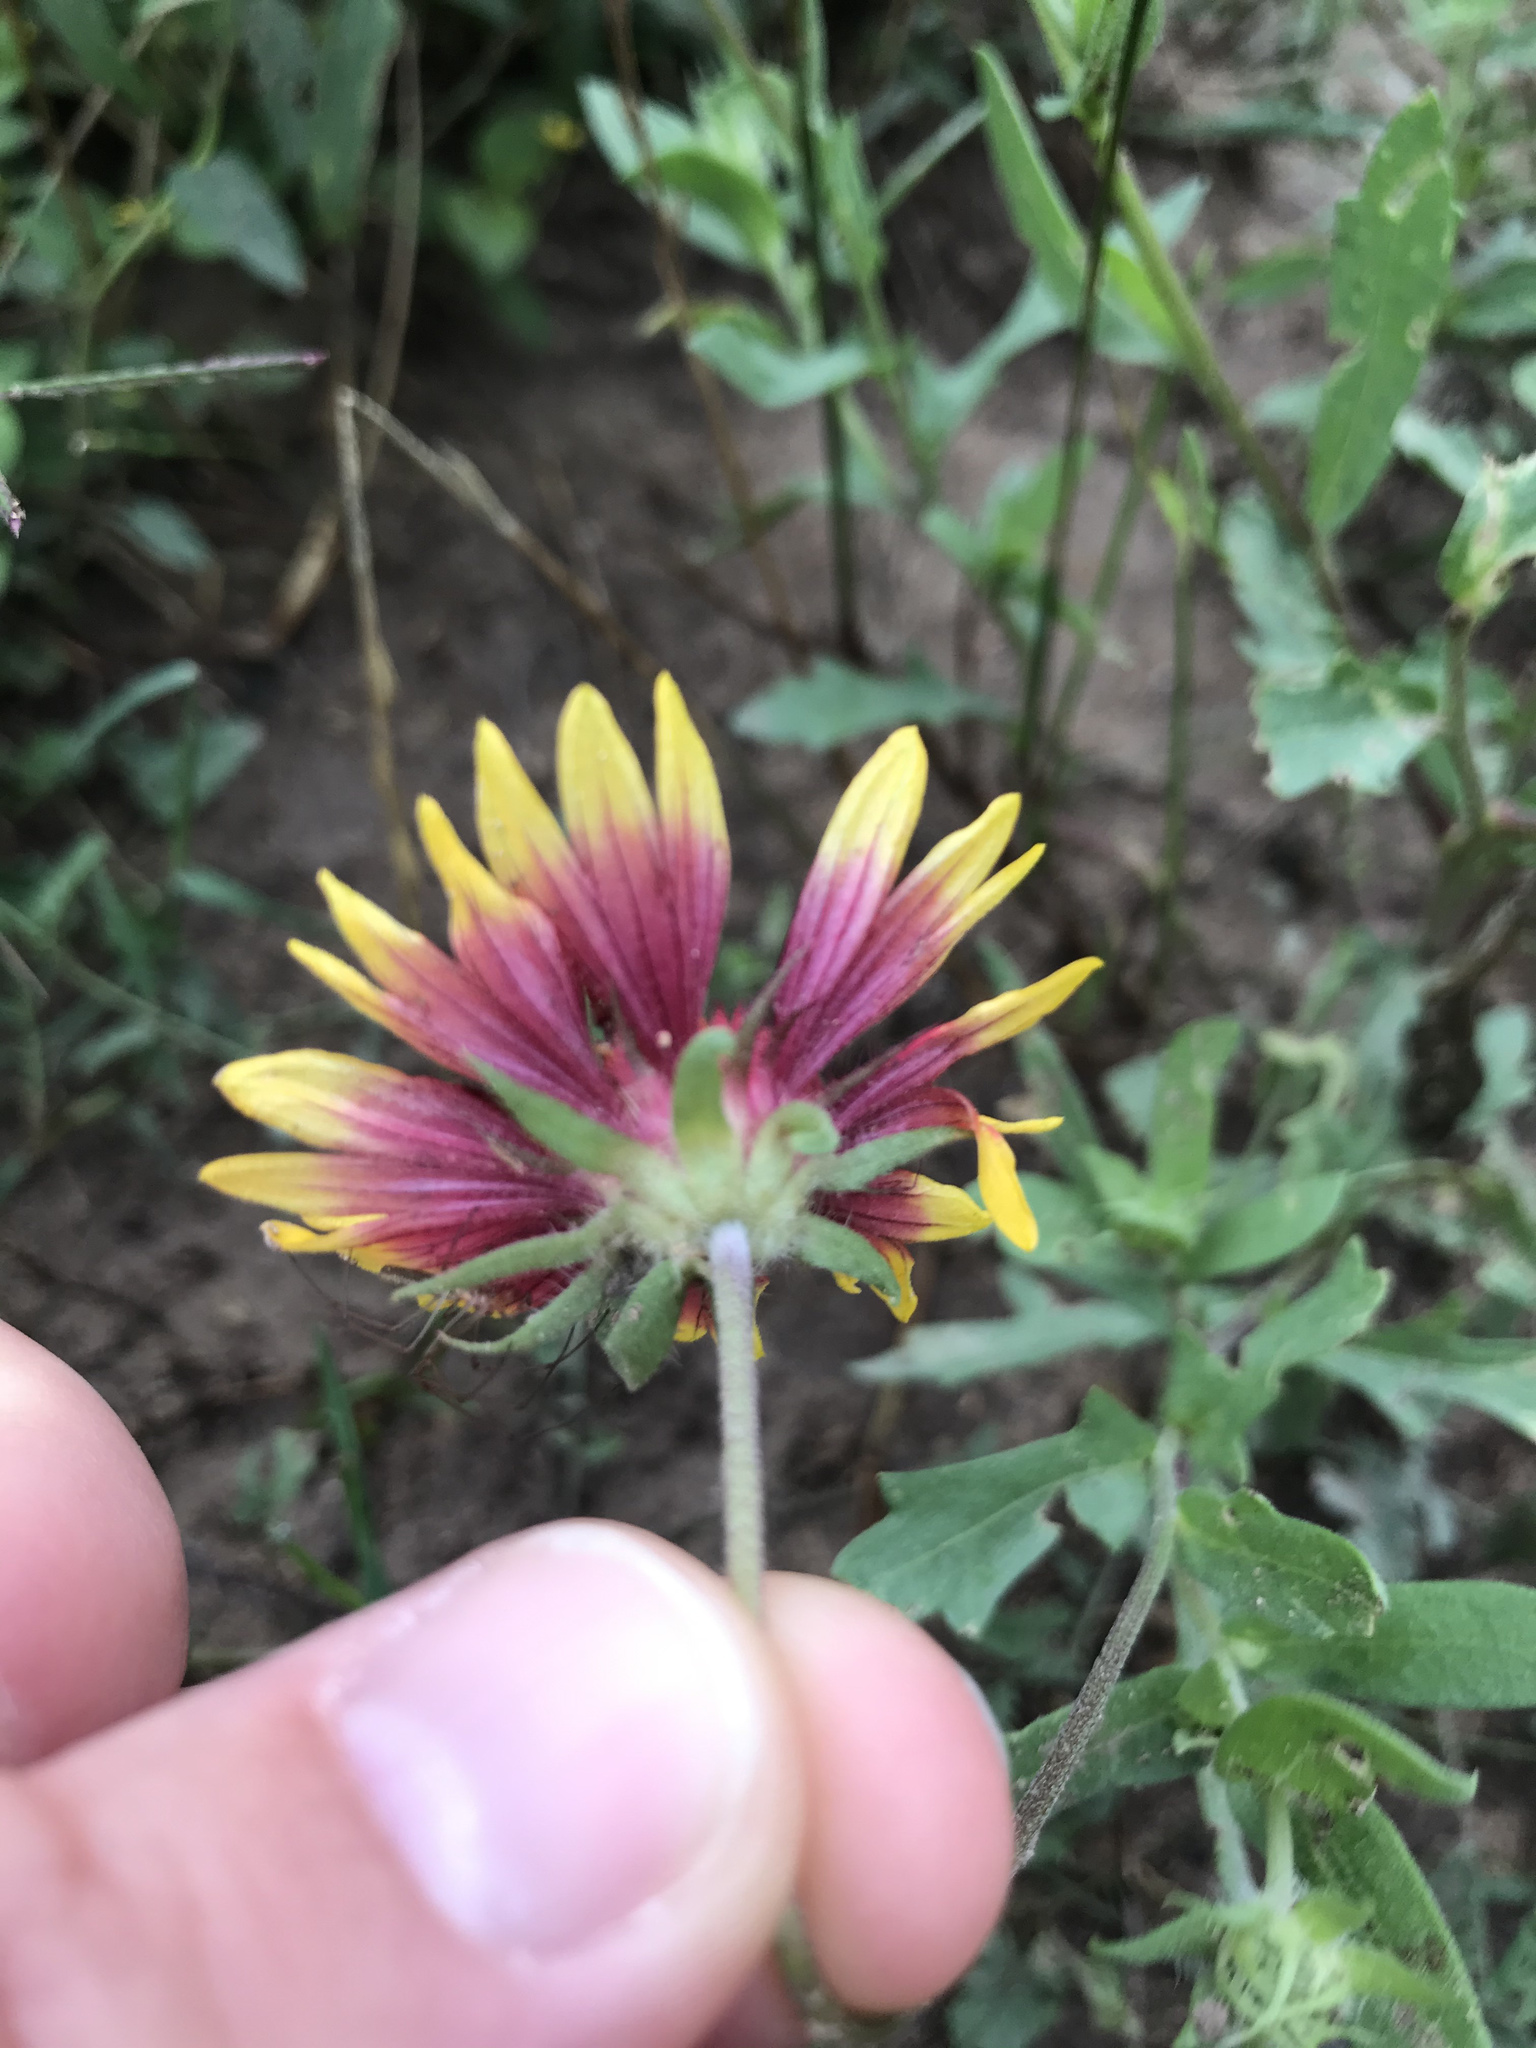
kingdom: Plantae
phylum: Tracheophyta
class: Magnoliopsida
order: Asterales
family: Asteraceae
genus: Gaillardia
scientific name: Gaillardia pulchella
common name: Firewheel
